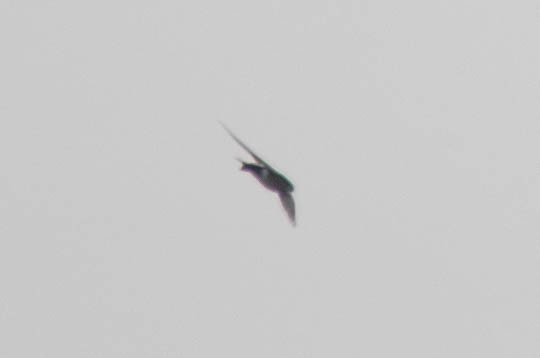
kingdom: Animalia
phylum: Chordata
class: Aves
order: Passeriformes
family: Hirundinidae
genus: Tachycineta
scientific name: Tachycineta thalassina
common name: Violet-green swallow
